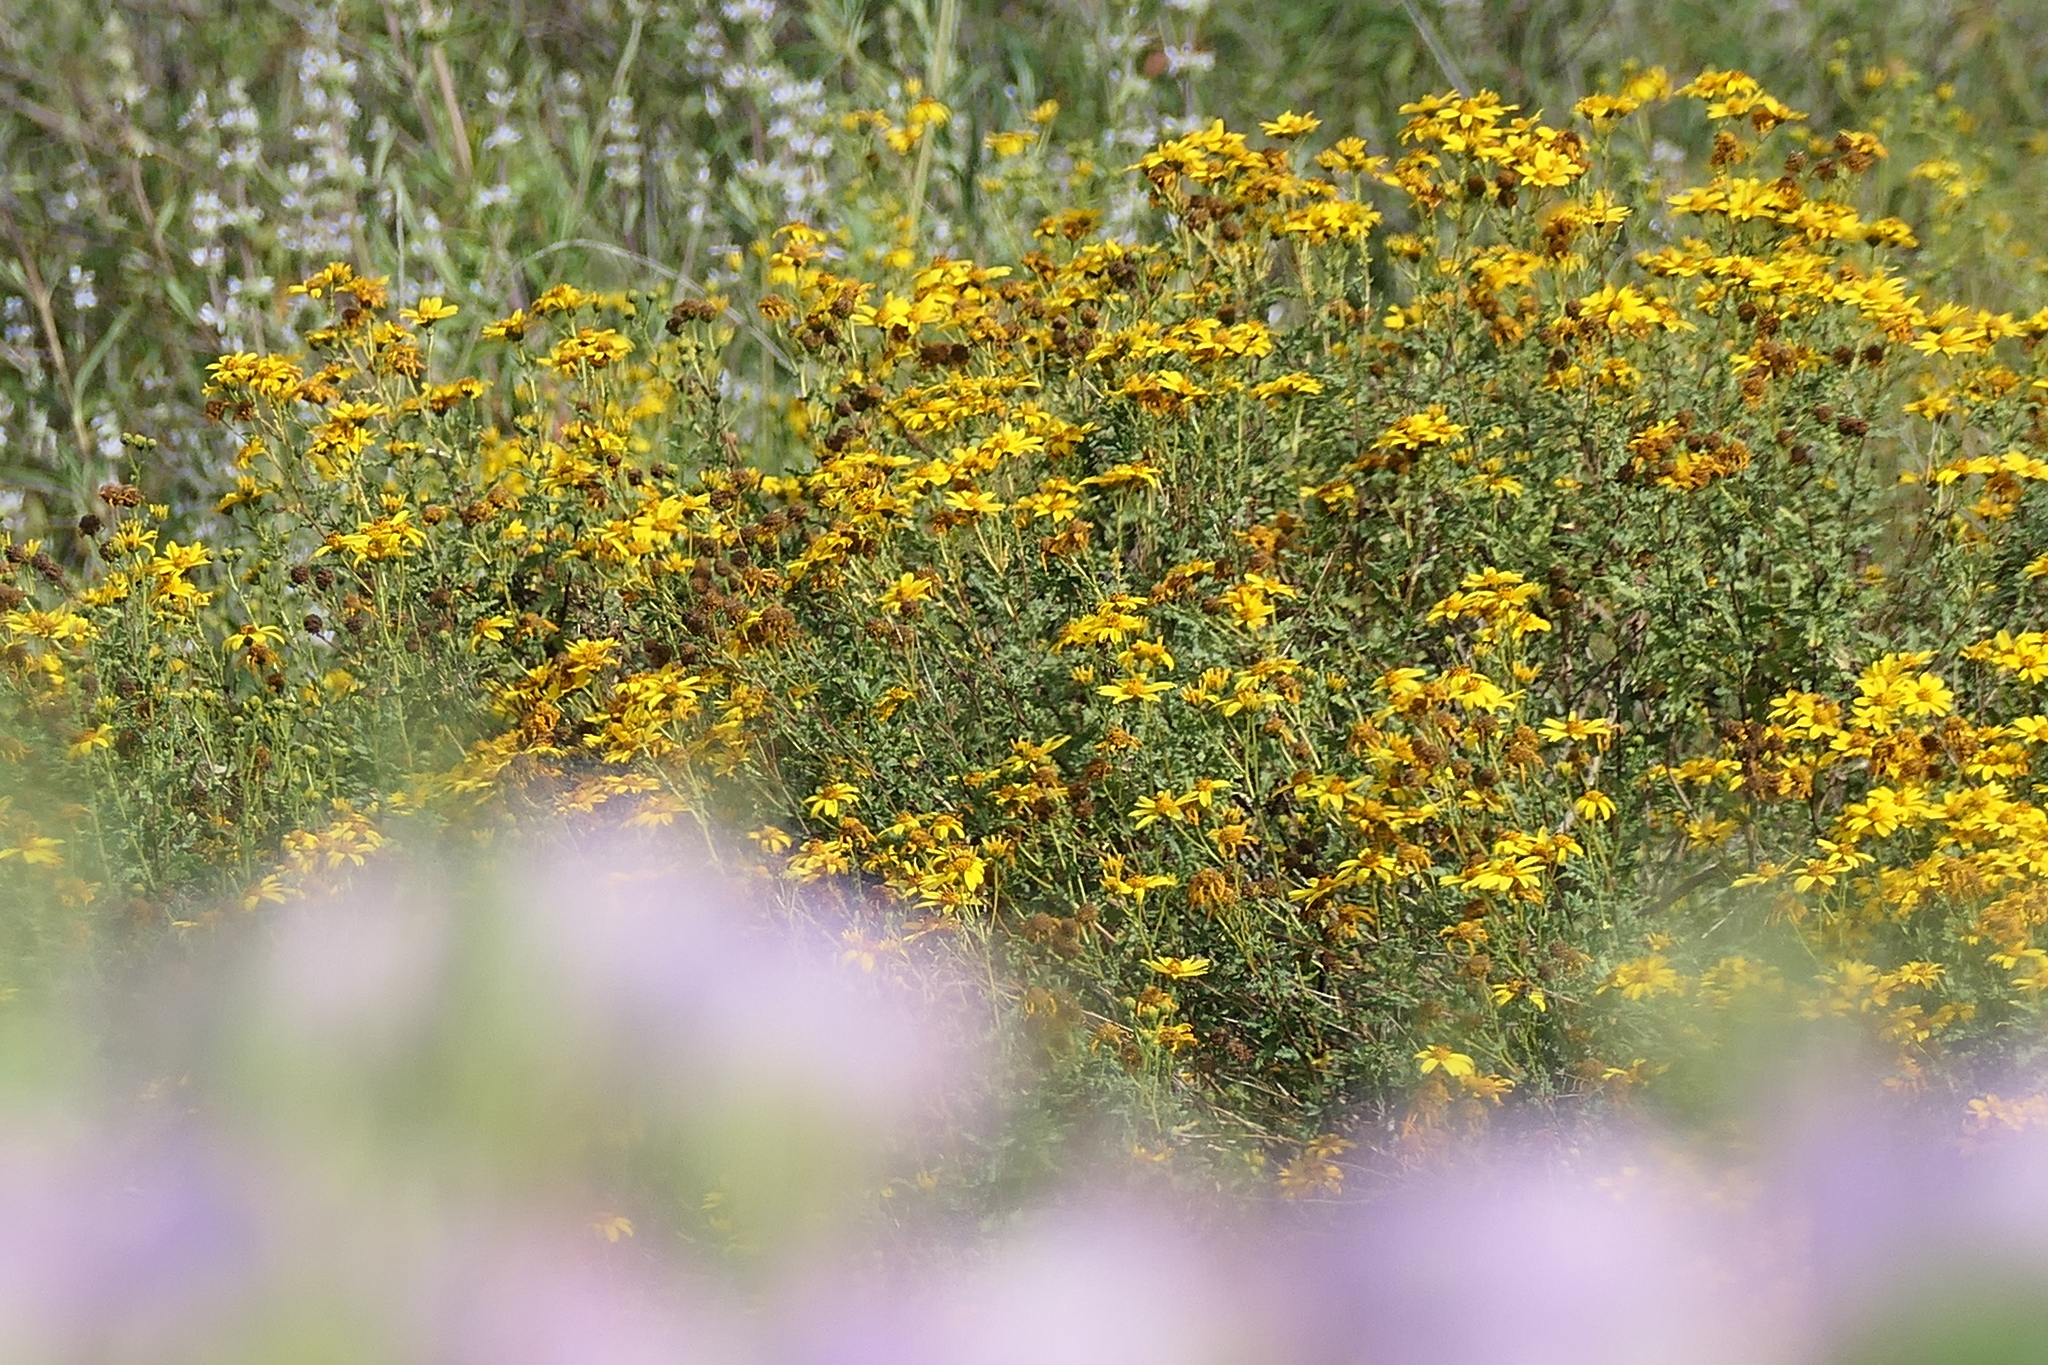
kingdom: Plantae
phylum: Tracheophyta
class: Magnoliopsida
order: Asterales
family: Asteraceae
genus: Bahiopsis
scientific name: Bahiopsis laciniata
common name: San diego county viguiera
